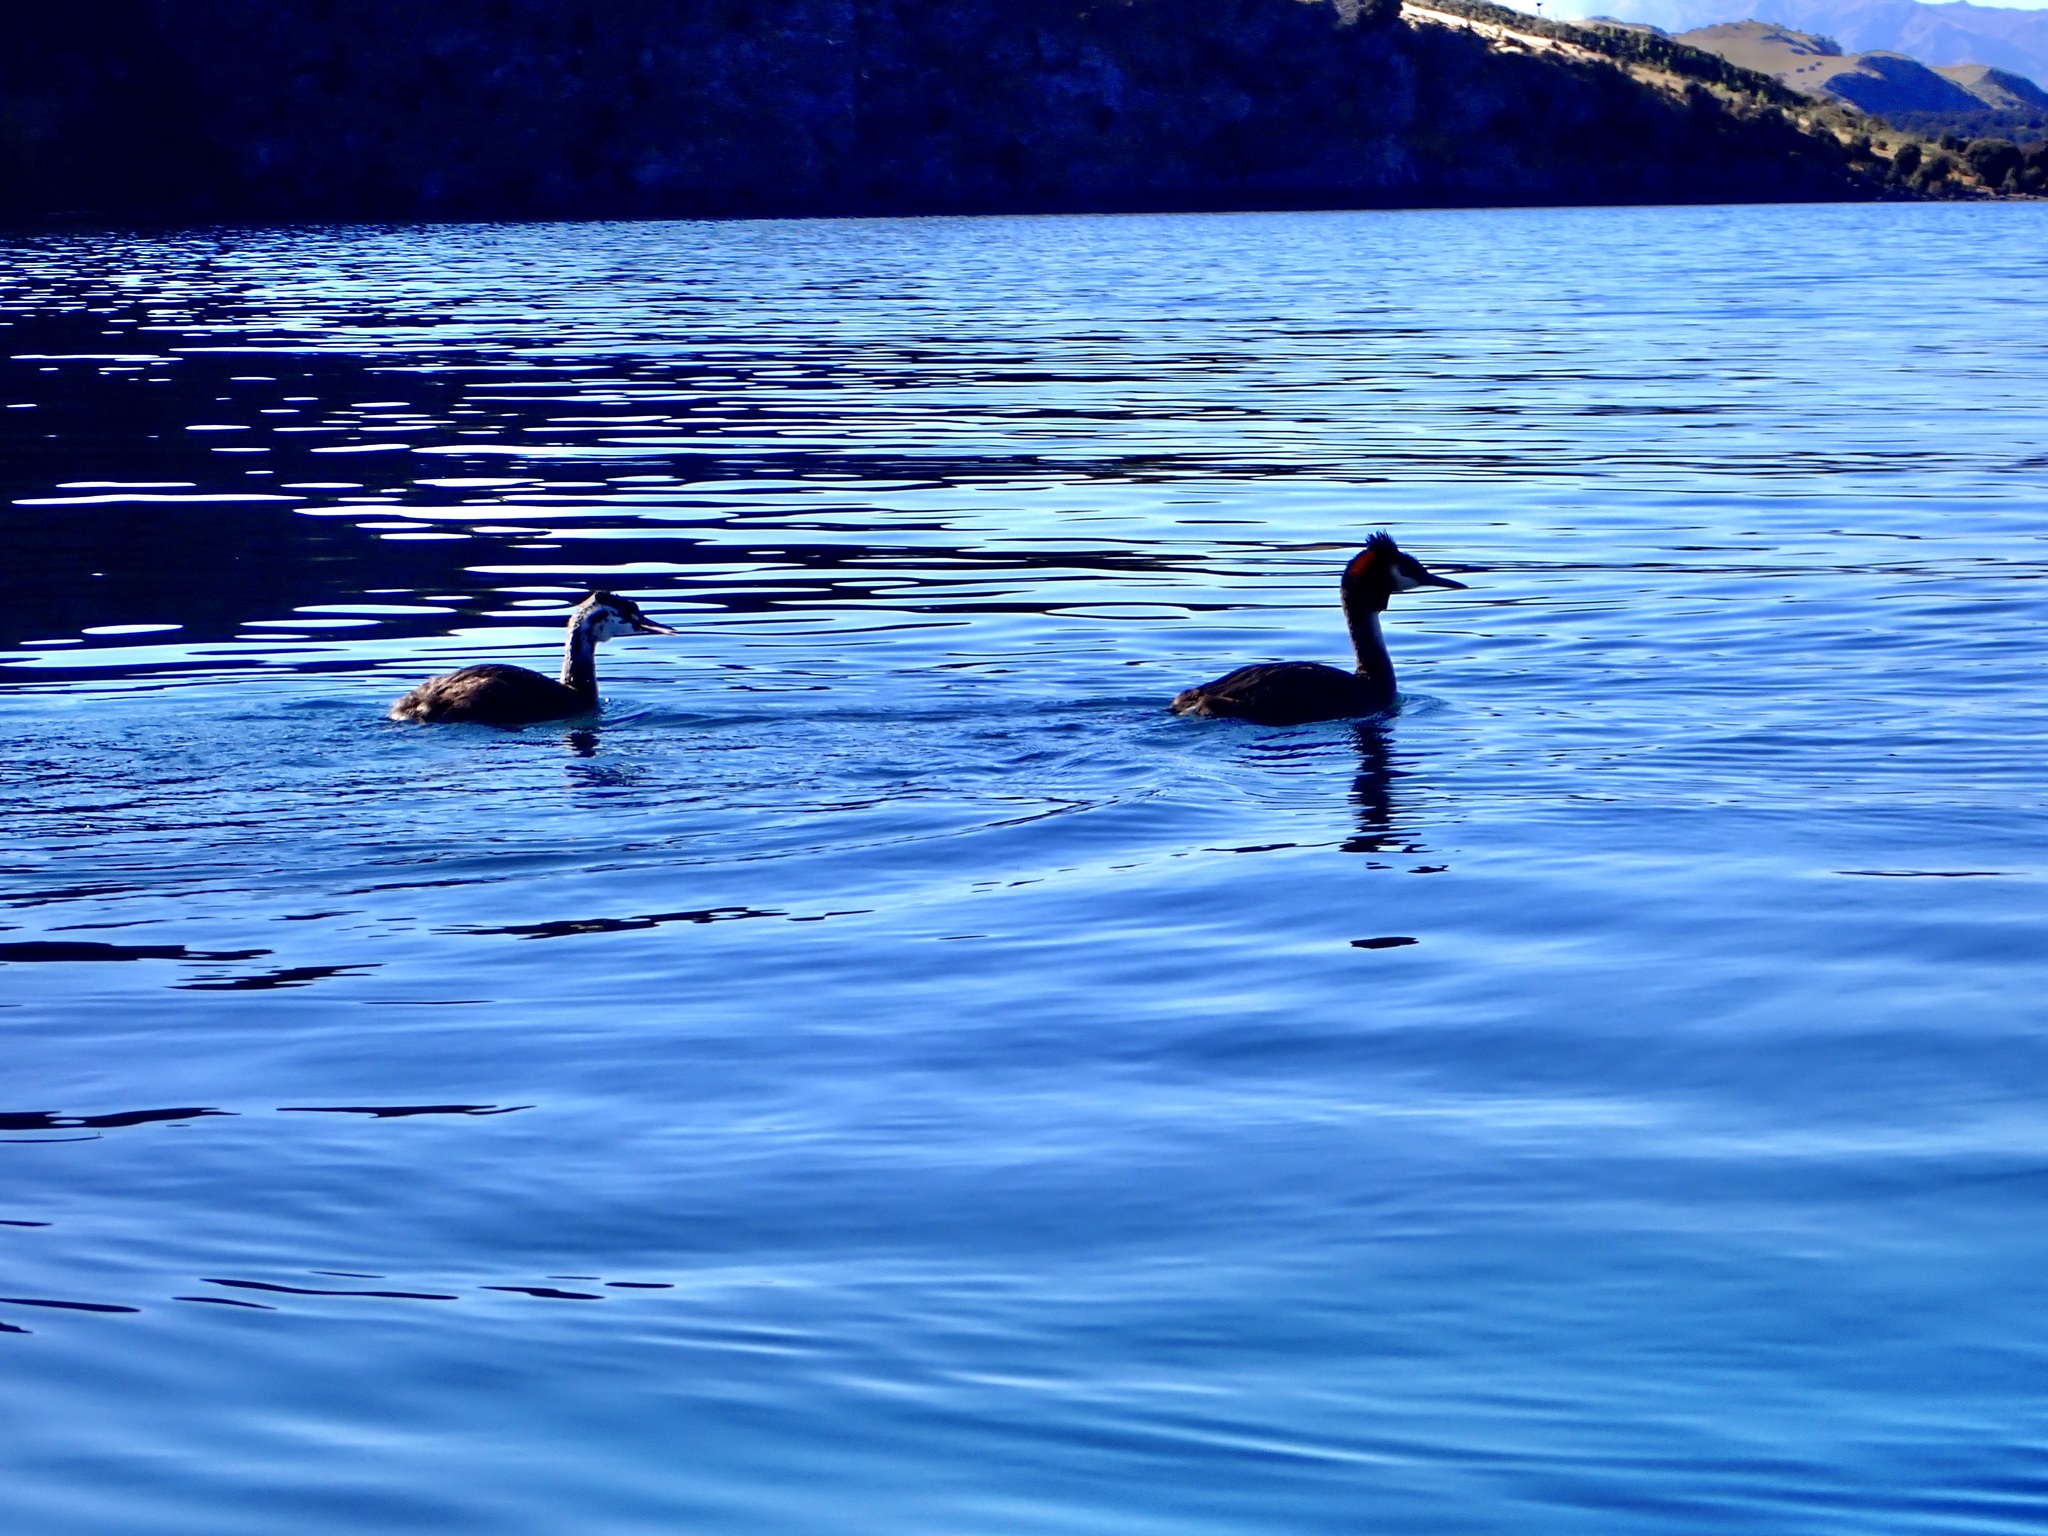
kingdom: Animalia
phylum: Chordata
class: Aves
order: Podicipediformes
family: Podicipedidae
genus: Podiceps
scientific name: Podiceps cristatus
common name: Great crested grebe
